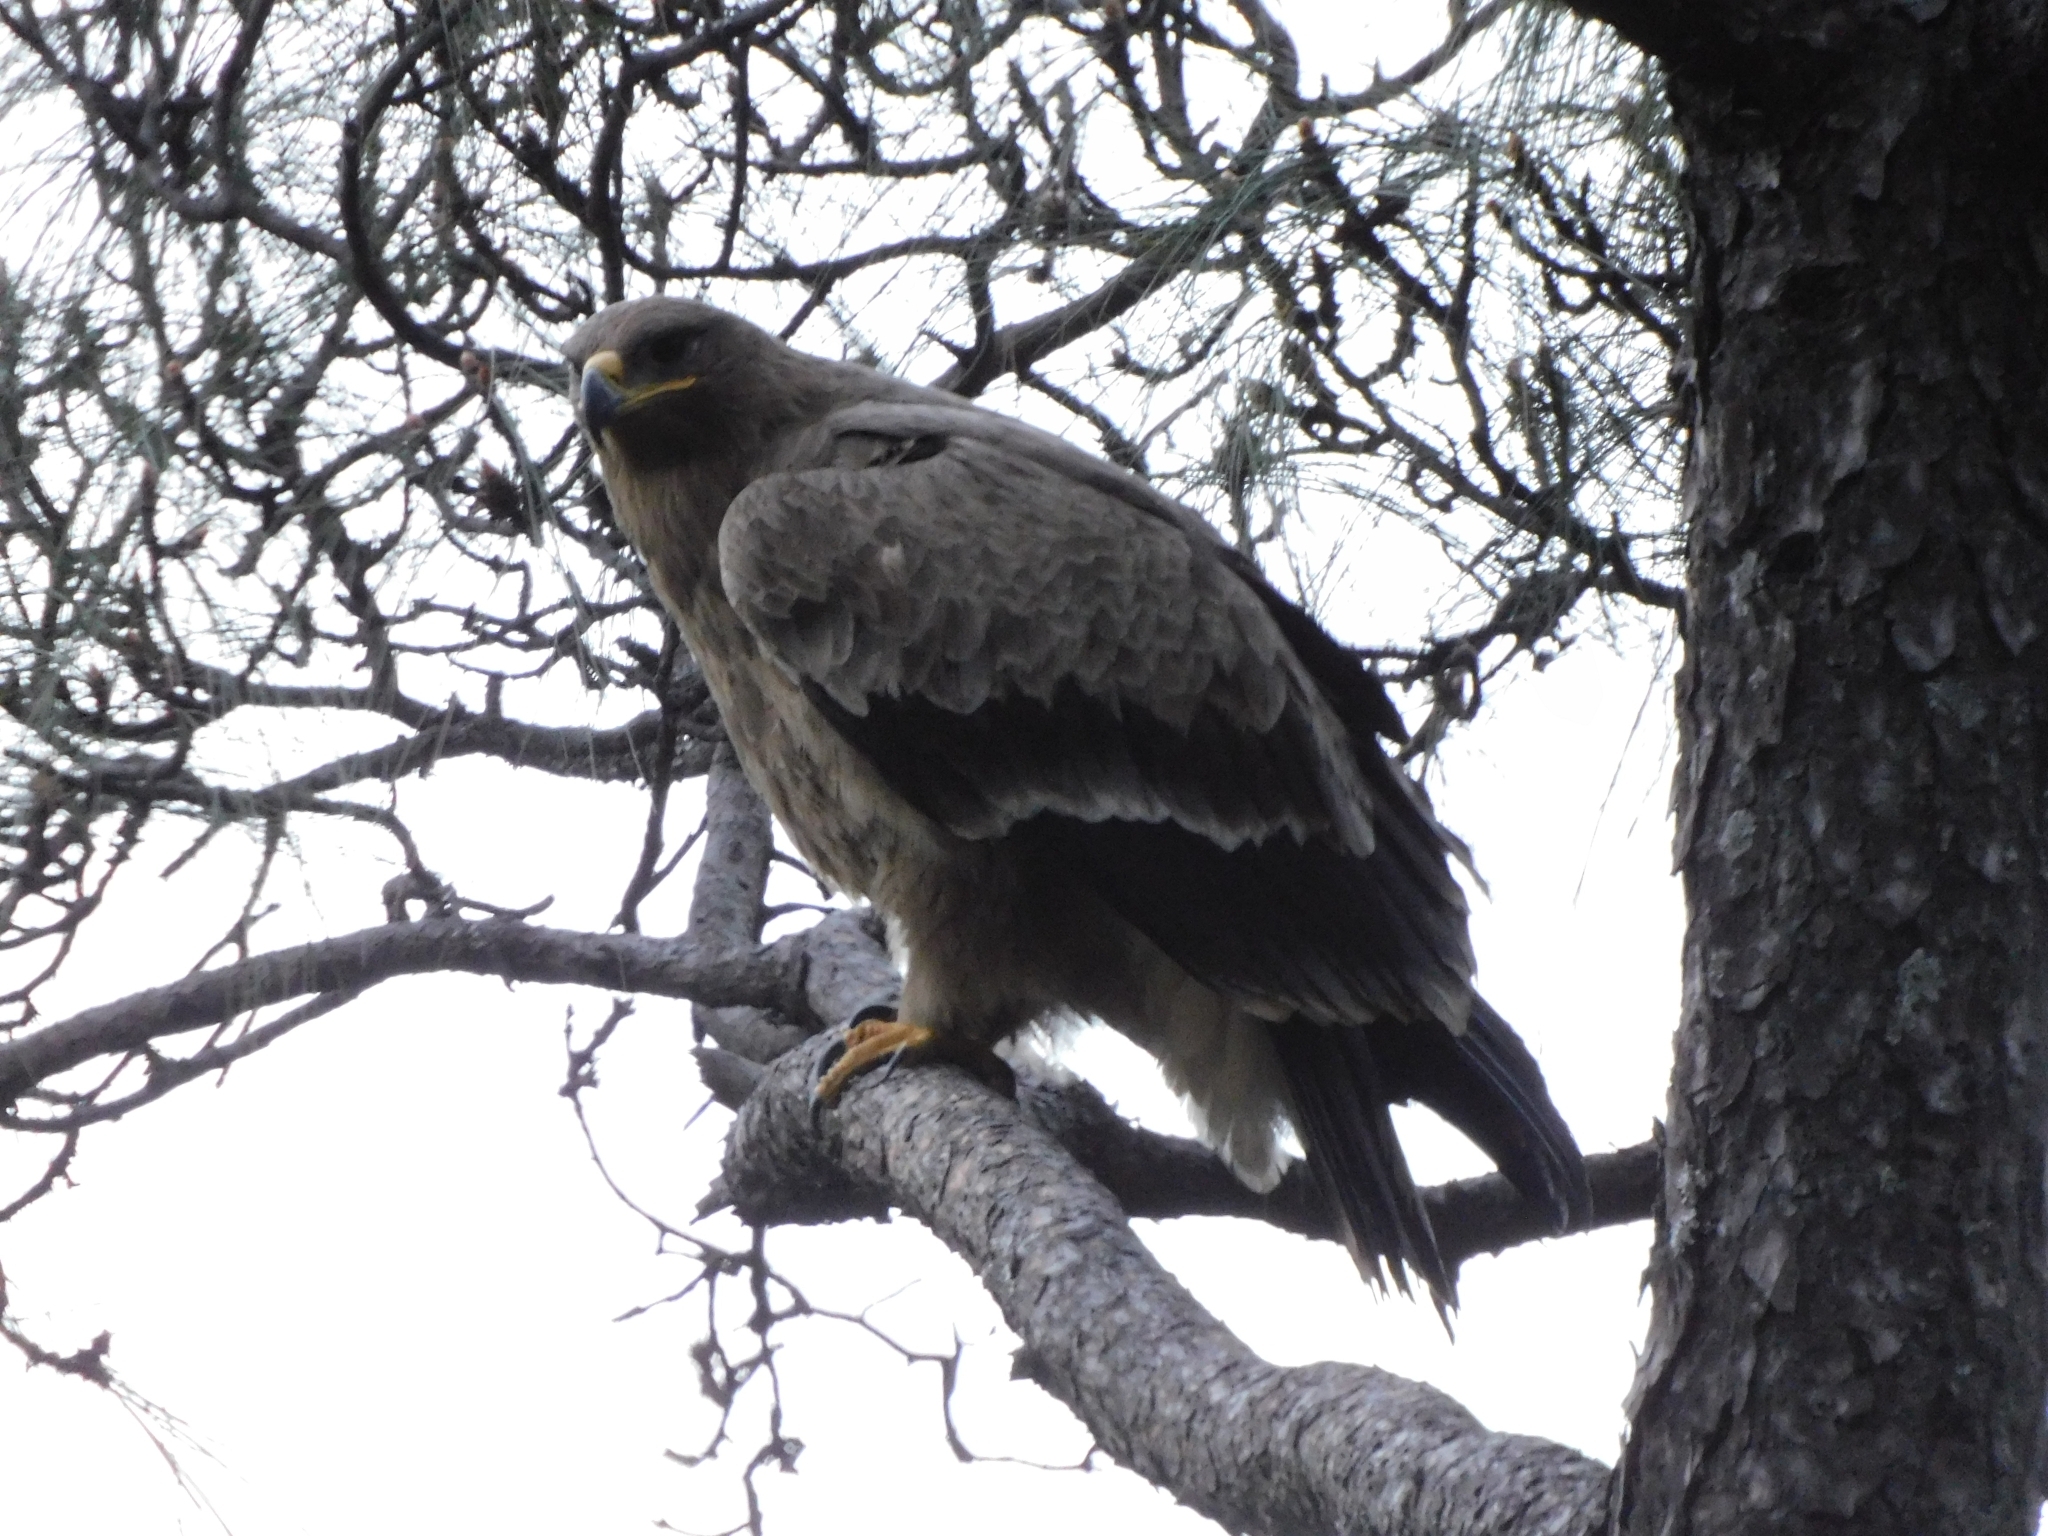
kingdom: Animalia
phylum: Chordata
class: Aves
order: Accipitriformes
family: Accipitridae
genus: Aquila
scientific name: Aquila nipalensis
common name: Steppe eagle
